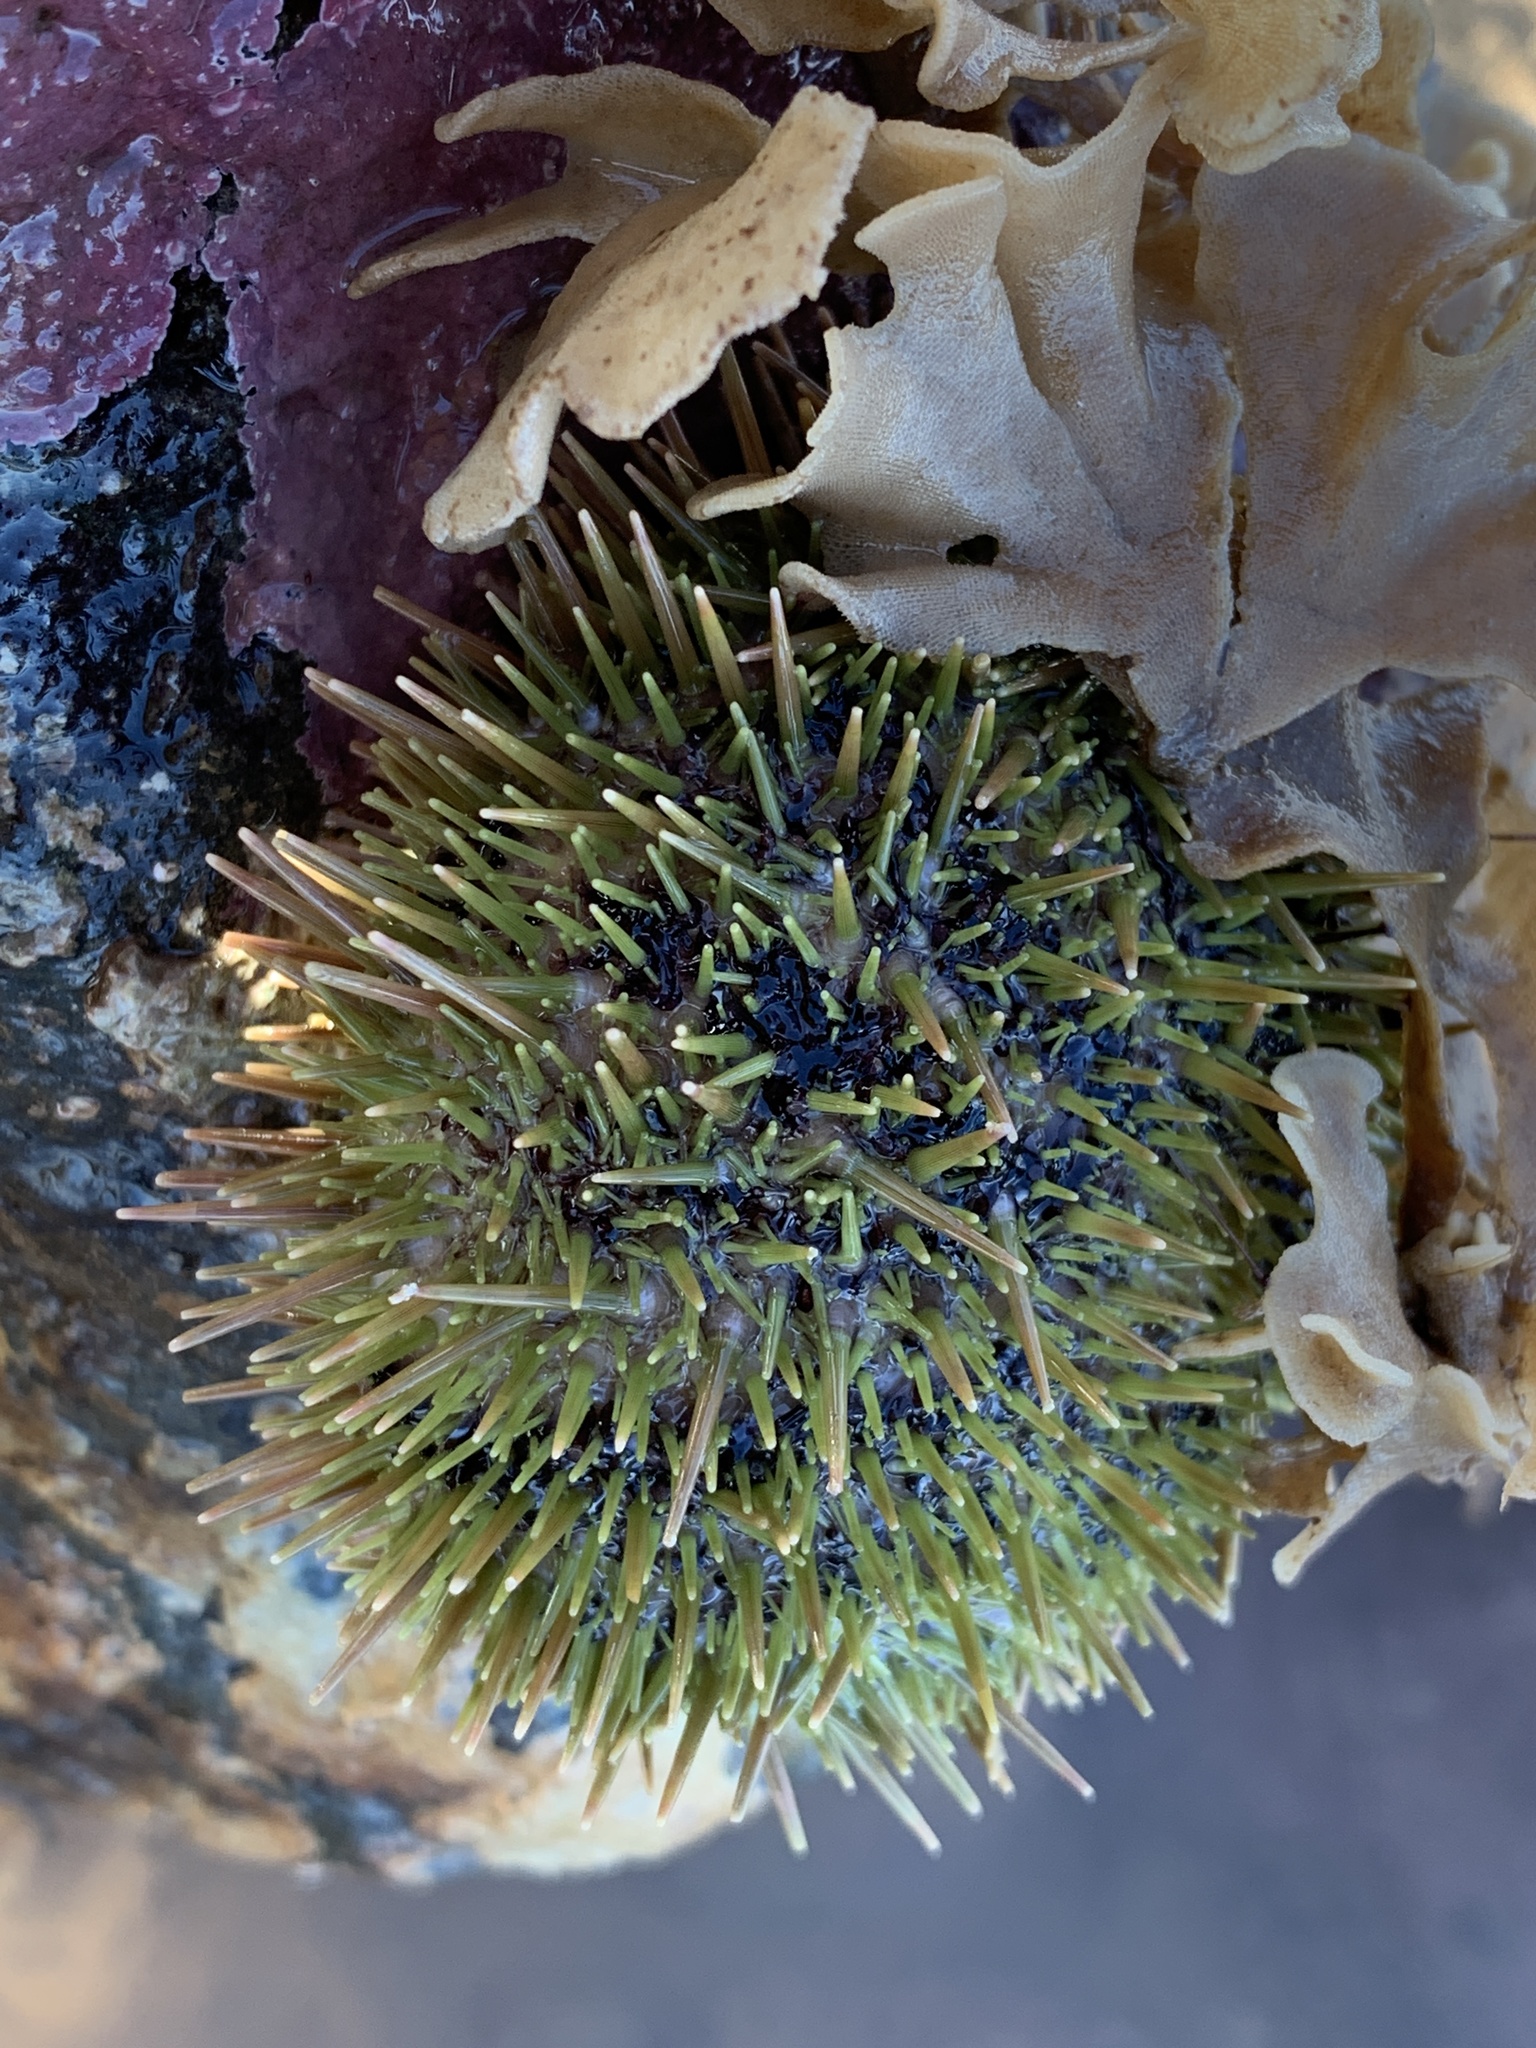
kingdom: Animalia
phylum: Echinodermata
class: Echinoidea
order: Camarodonta
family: Strongylocentrotidae
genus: Strongylocentrotus
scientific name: Strongylocentrotus droebachiensis
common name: Northern sea urchin
